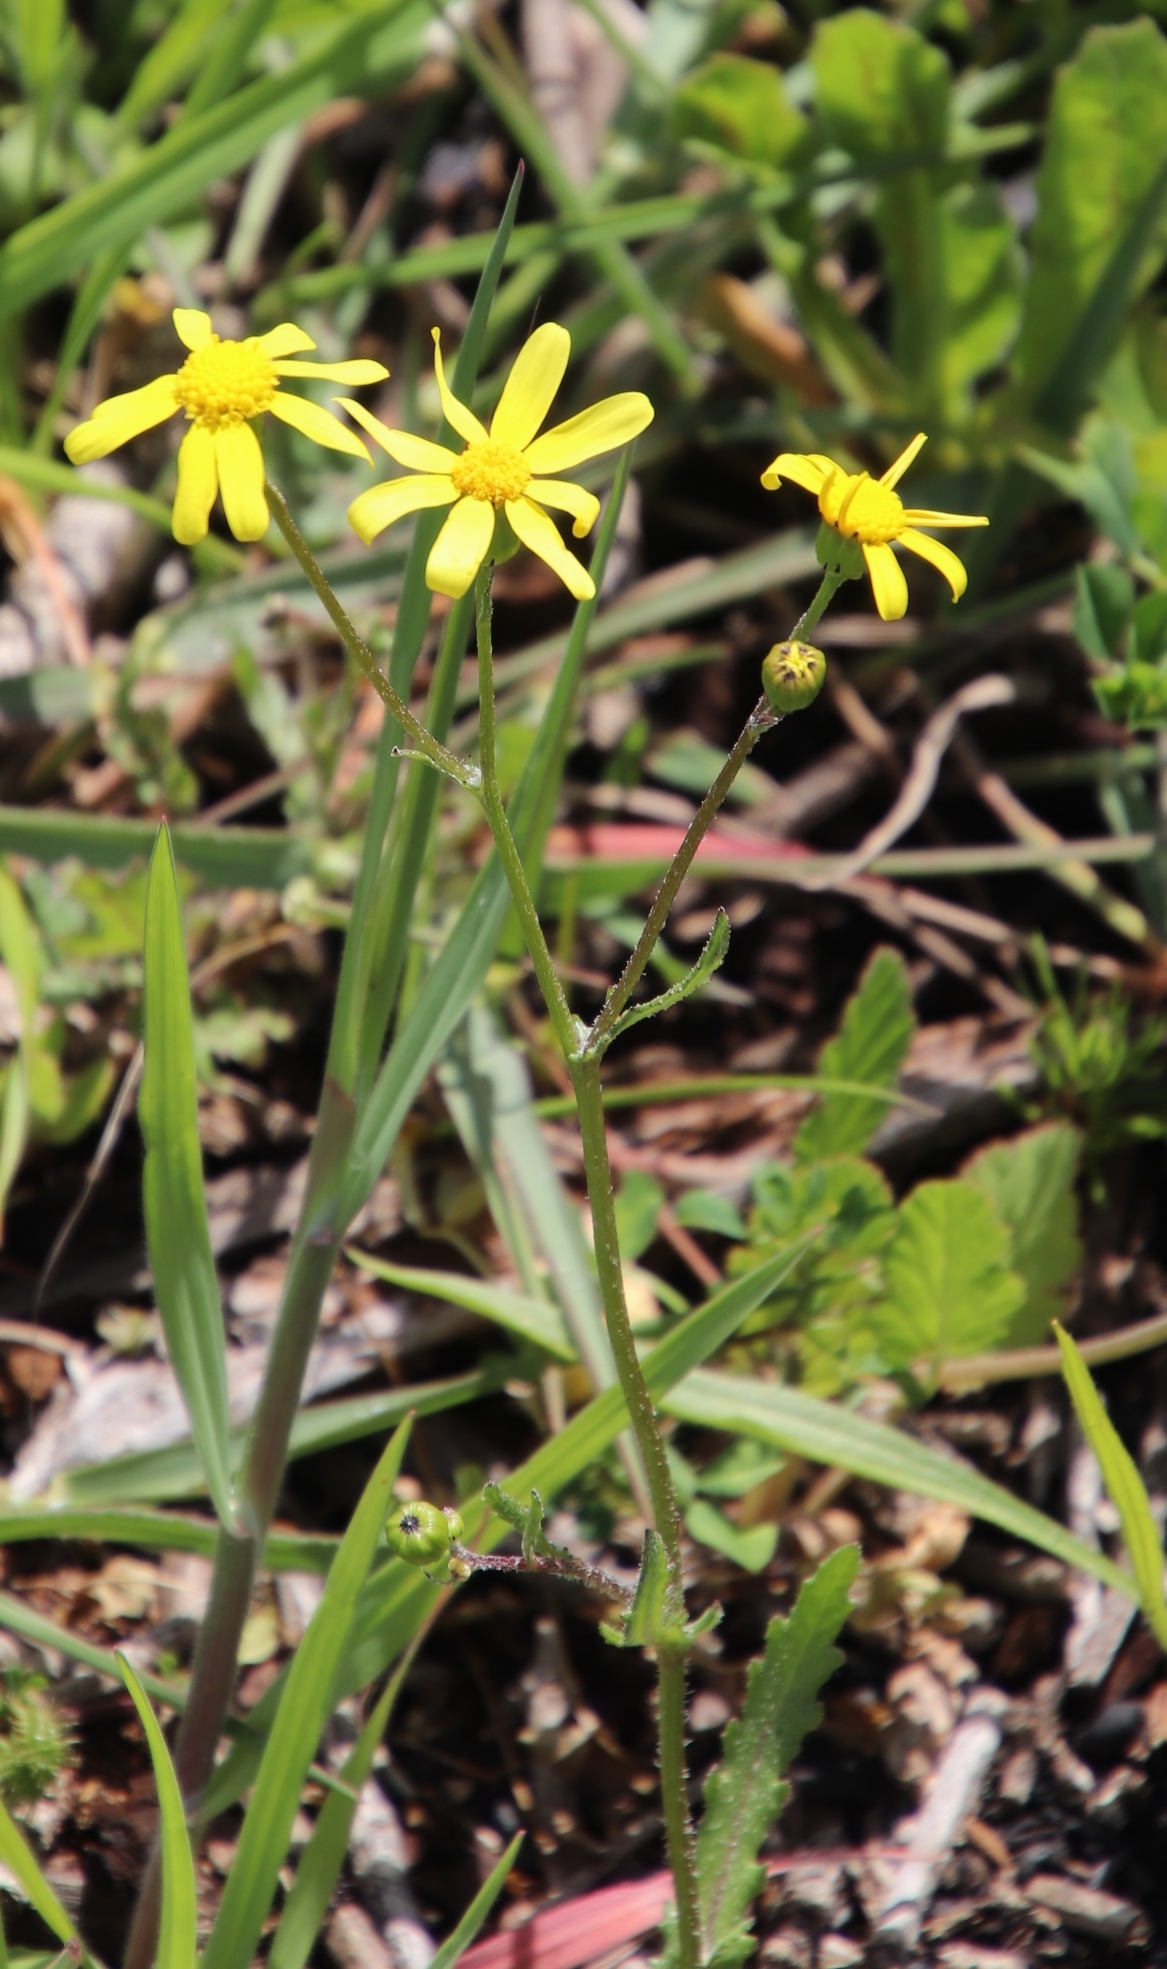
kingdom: Plantae
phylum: Tracheophyta
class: Magnoliopsida
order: Asterales
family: Asteraceae
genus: Senecio
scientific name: Senecio littoreus
